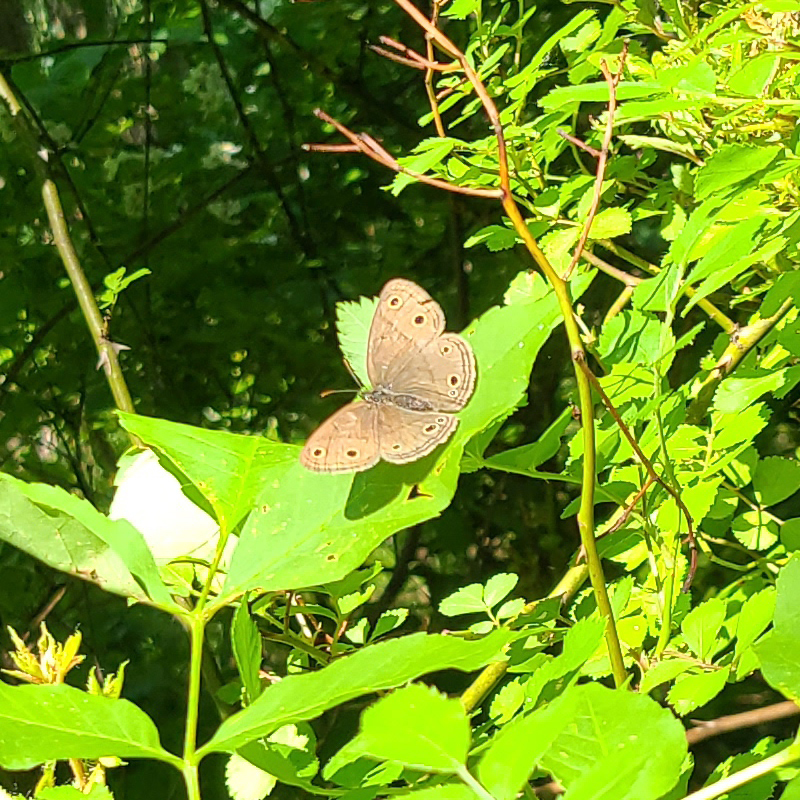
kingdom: Animalia
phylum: Arthropoda
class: Insecta
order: Lepidoptera
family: Nymphalidae
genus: Euptychia
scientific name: Euptychia cymela
